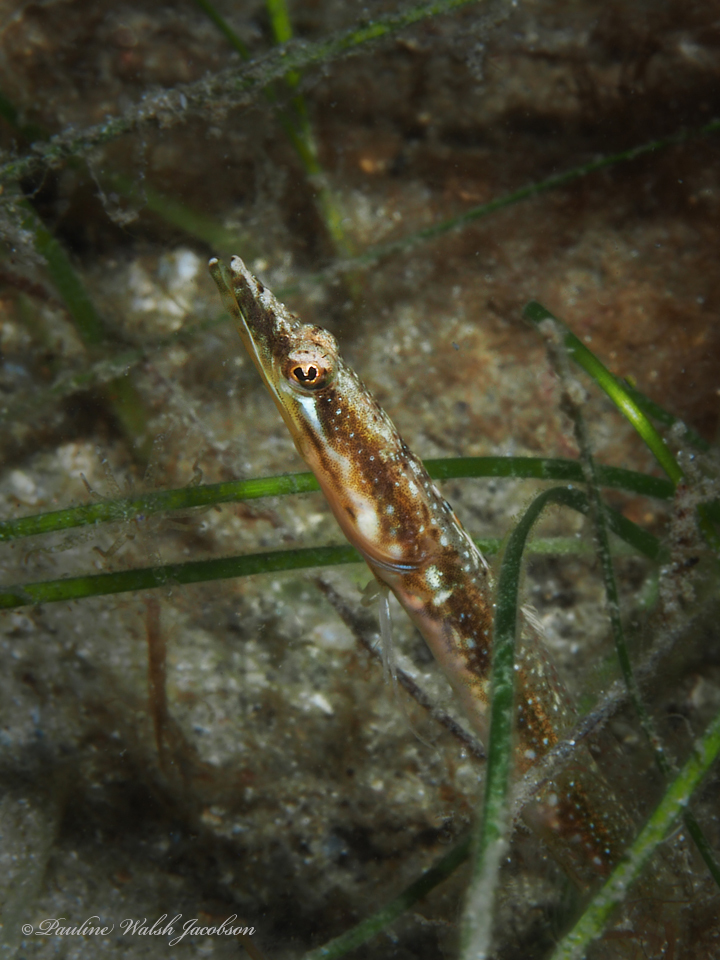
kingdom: Animalia
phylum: Chordata
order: Perciformes
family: Chaenopsidae
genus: Chaenopsis
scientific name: Chaenopsis ocellata
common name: Bluethroat pikeblenny
